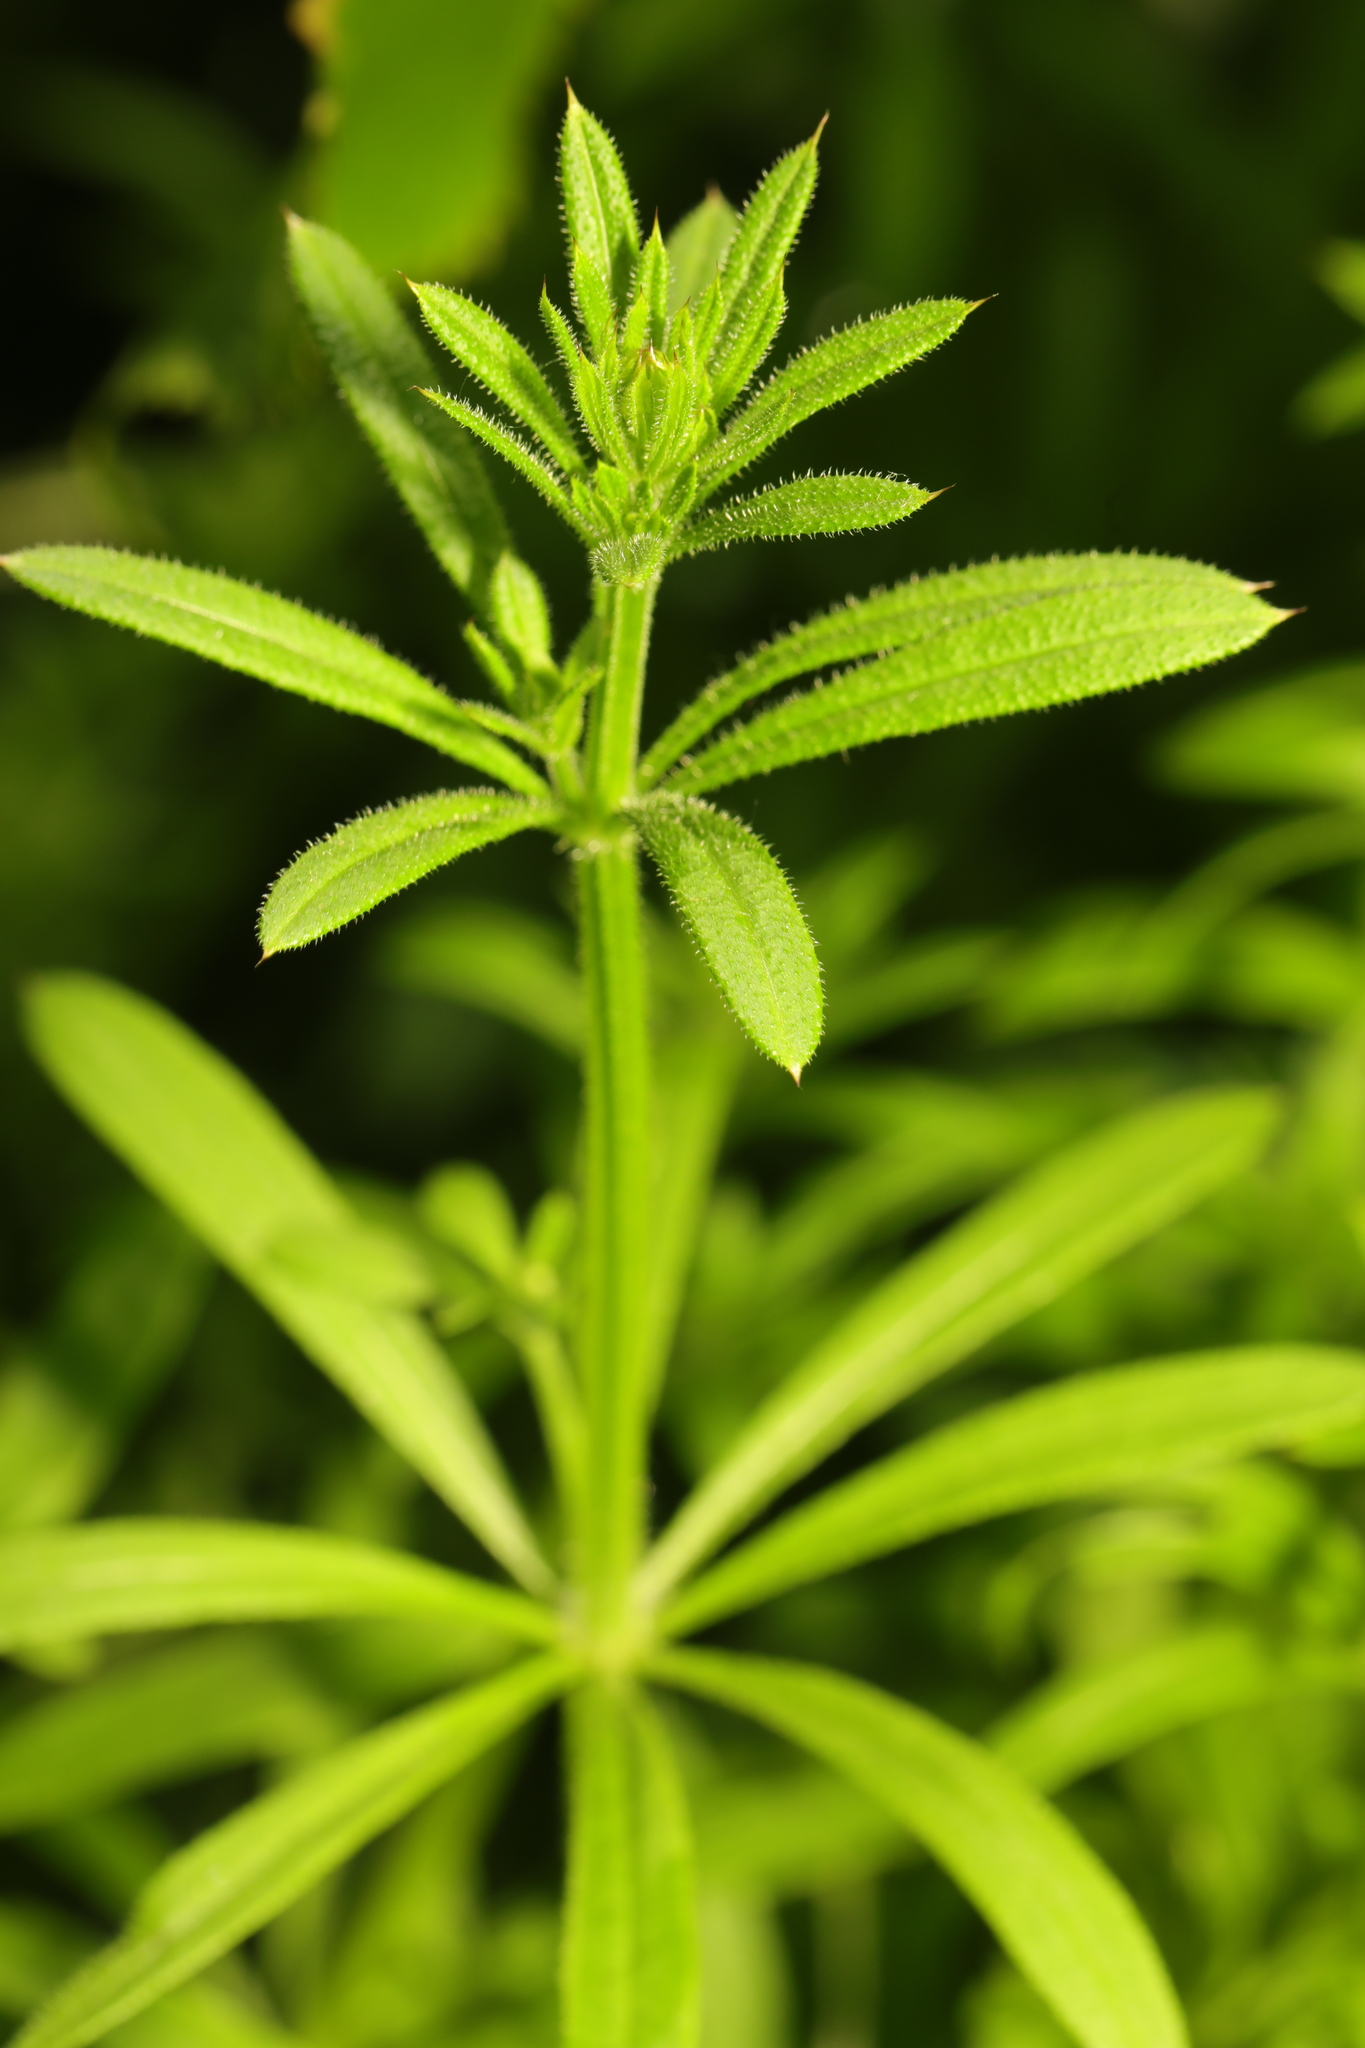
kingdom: Plantae
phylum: Tracheophyta
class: Magnoliopsida
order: Gentianales
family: Rubiaceae
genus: Galium
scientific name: Galium aparine
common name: Cleavers
